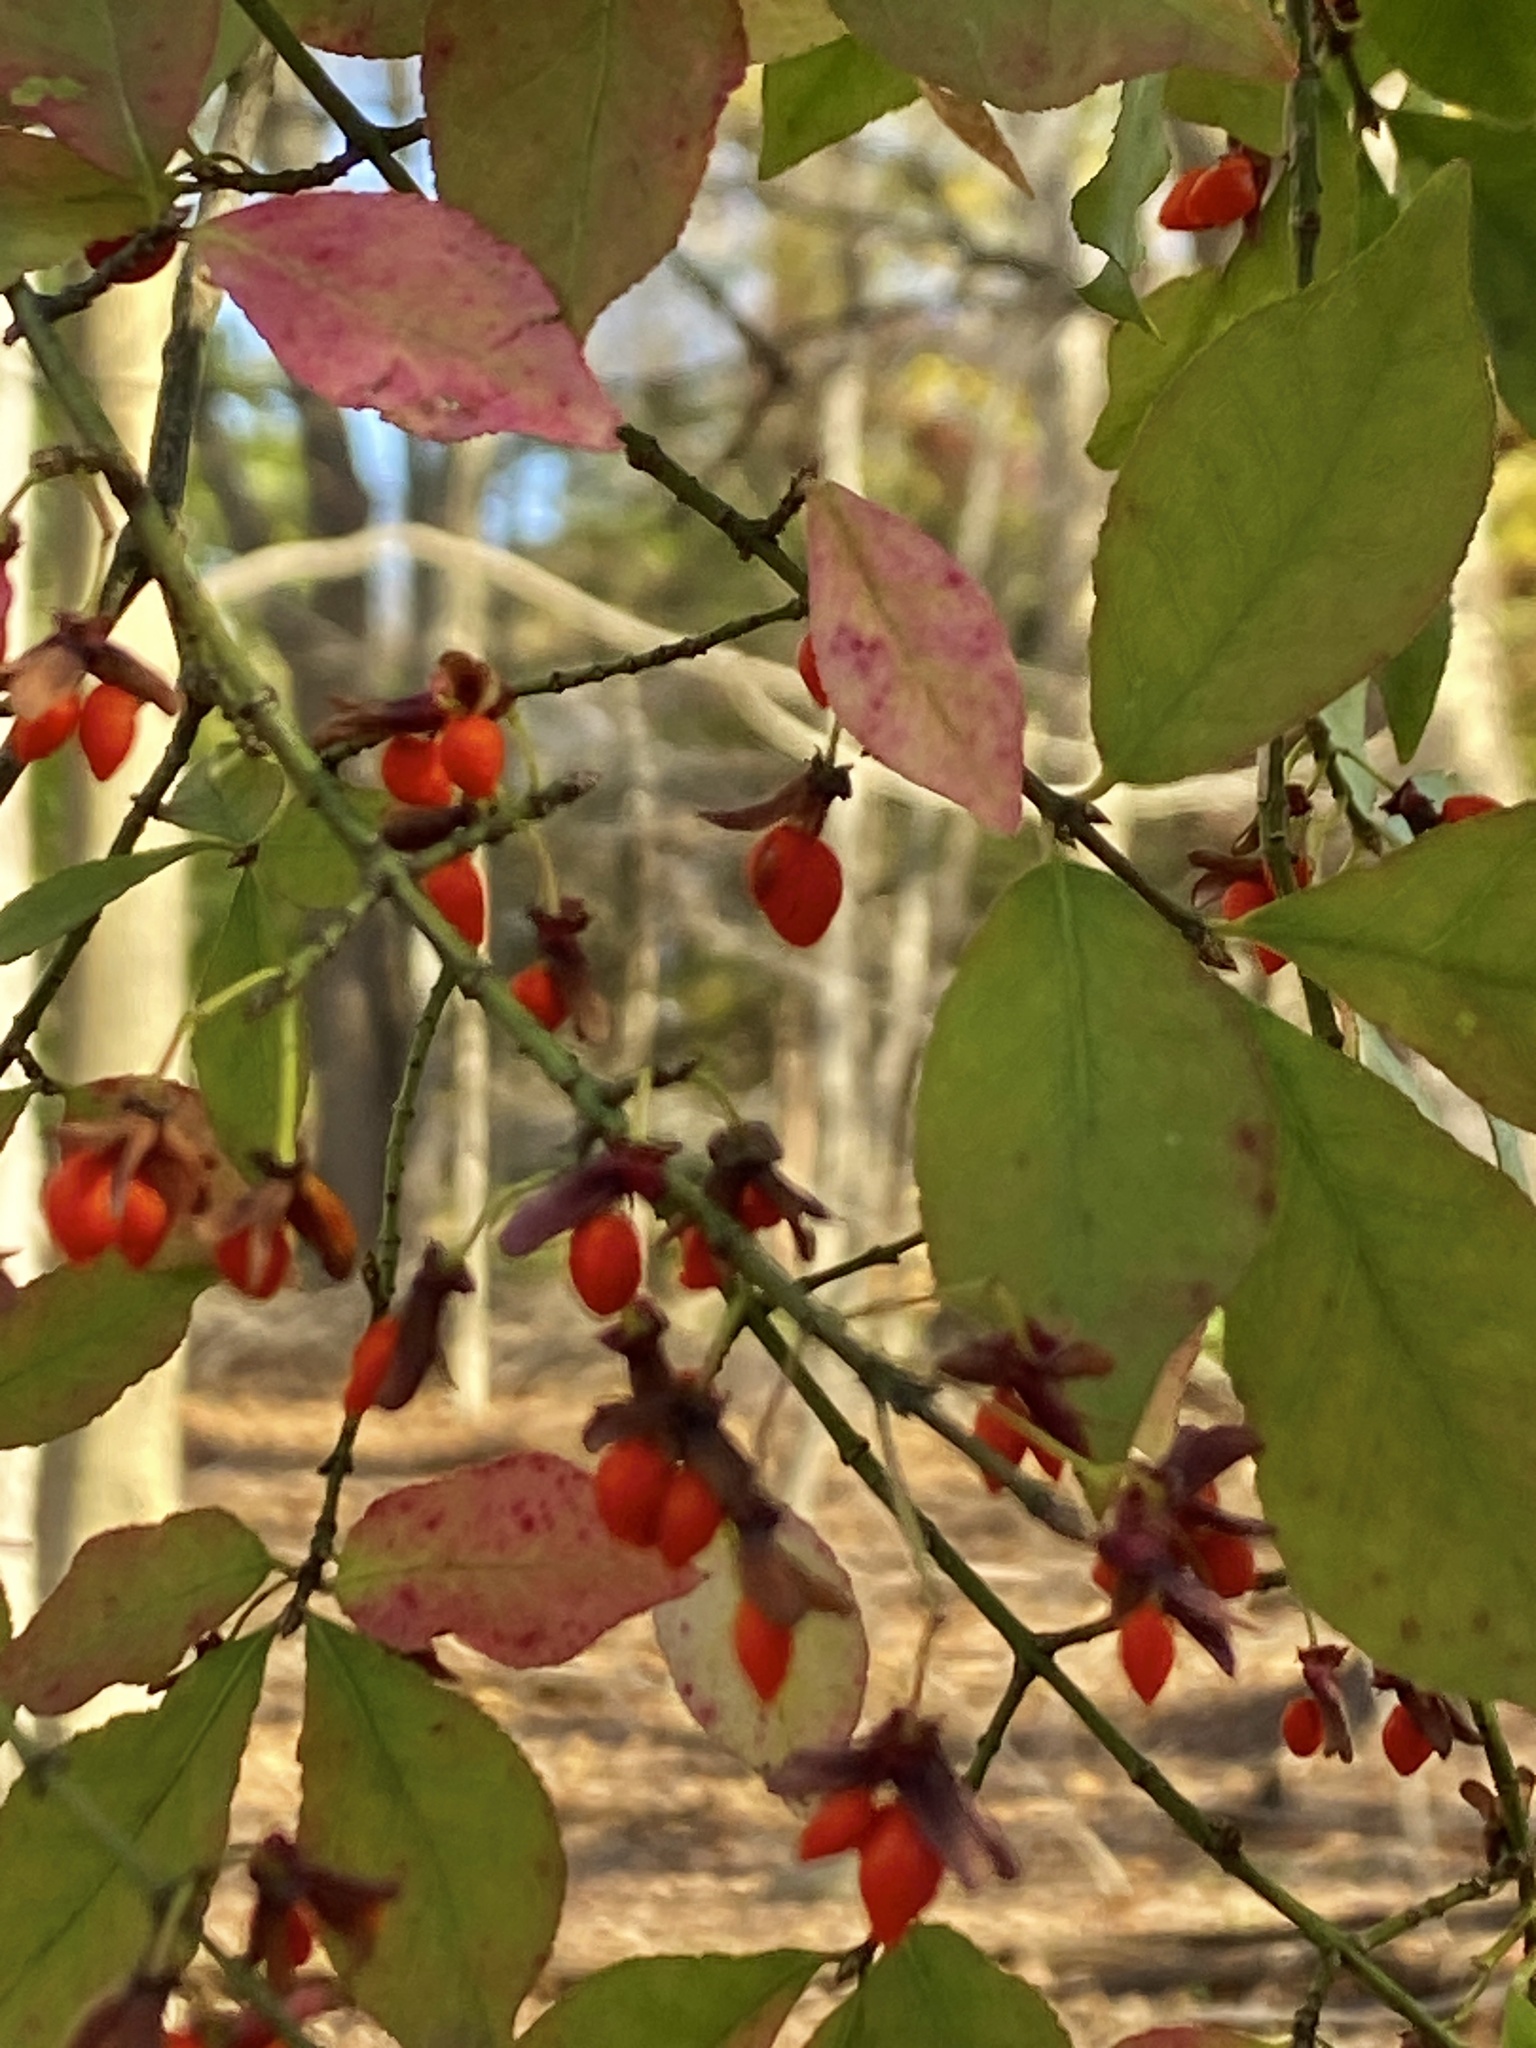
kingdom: Plantae
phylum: Tracheophyta
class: Magnoliopsida
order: Celastrales
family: Celastraceae
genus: Euonymus
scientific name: Euonymus alatus
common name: Winged euonymus
